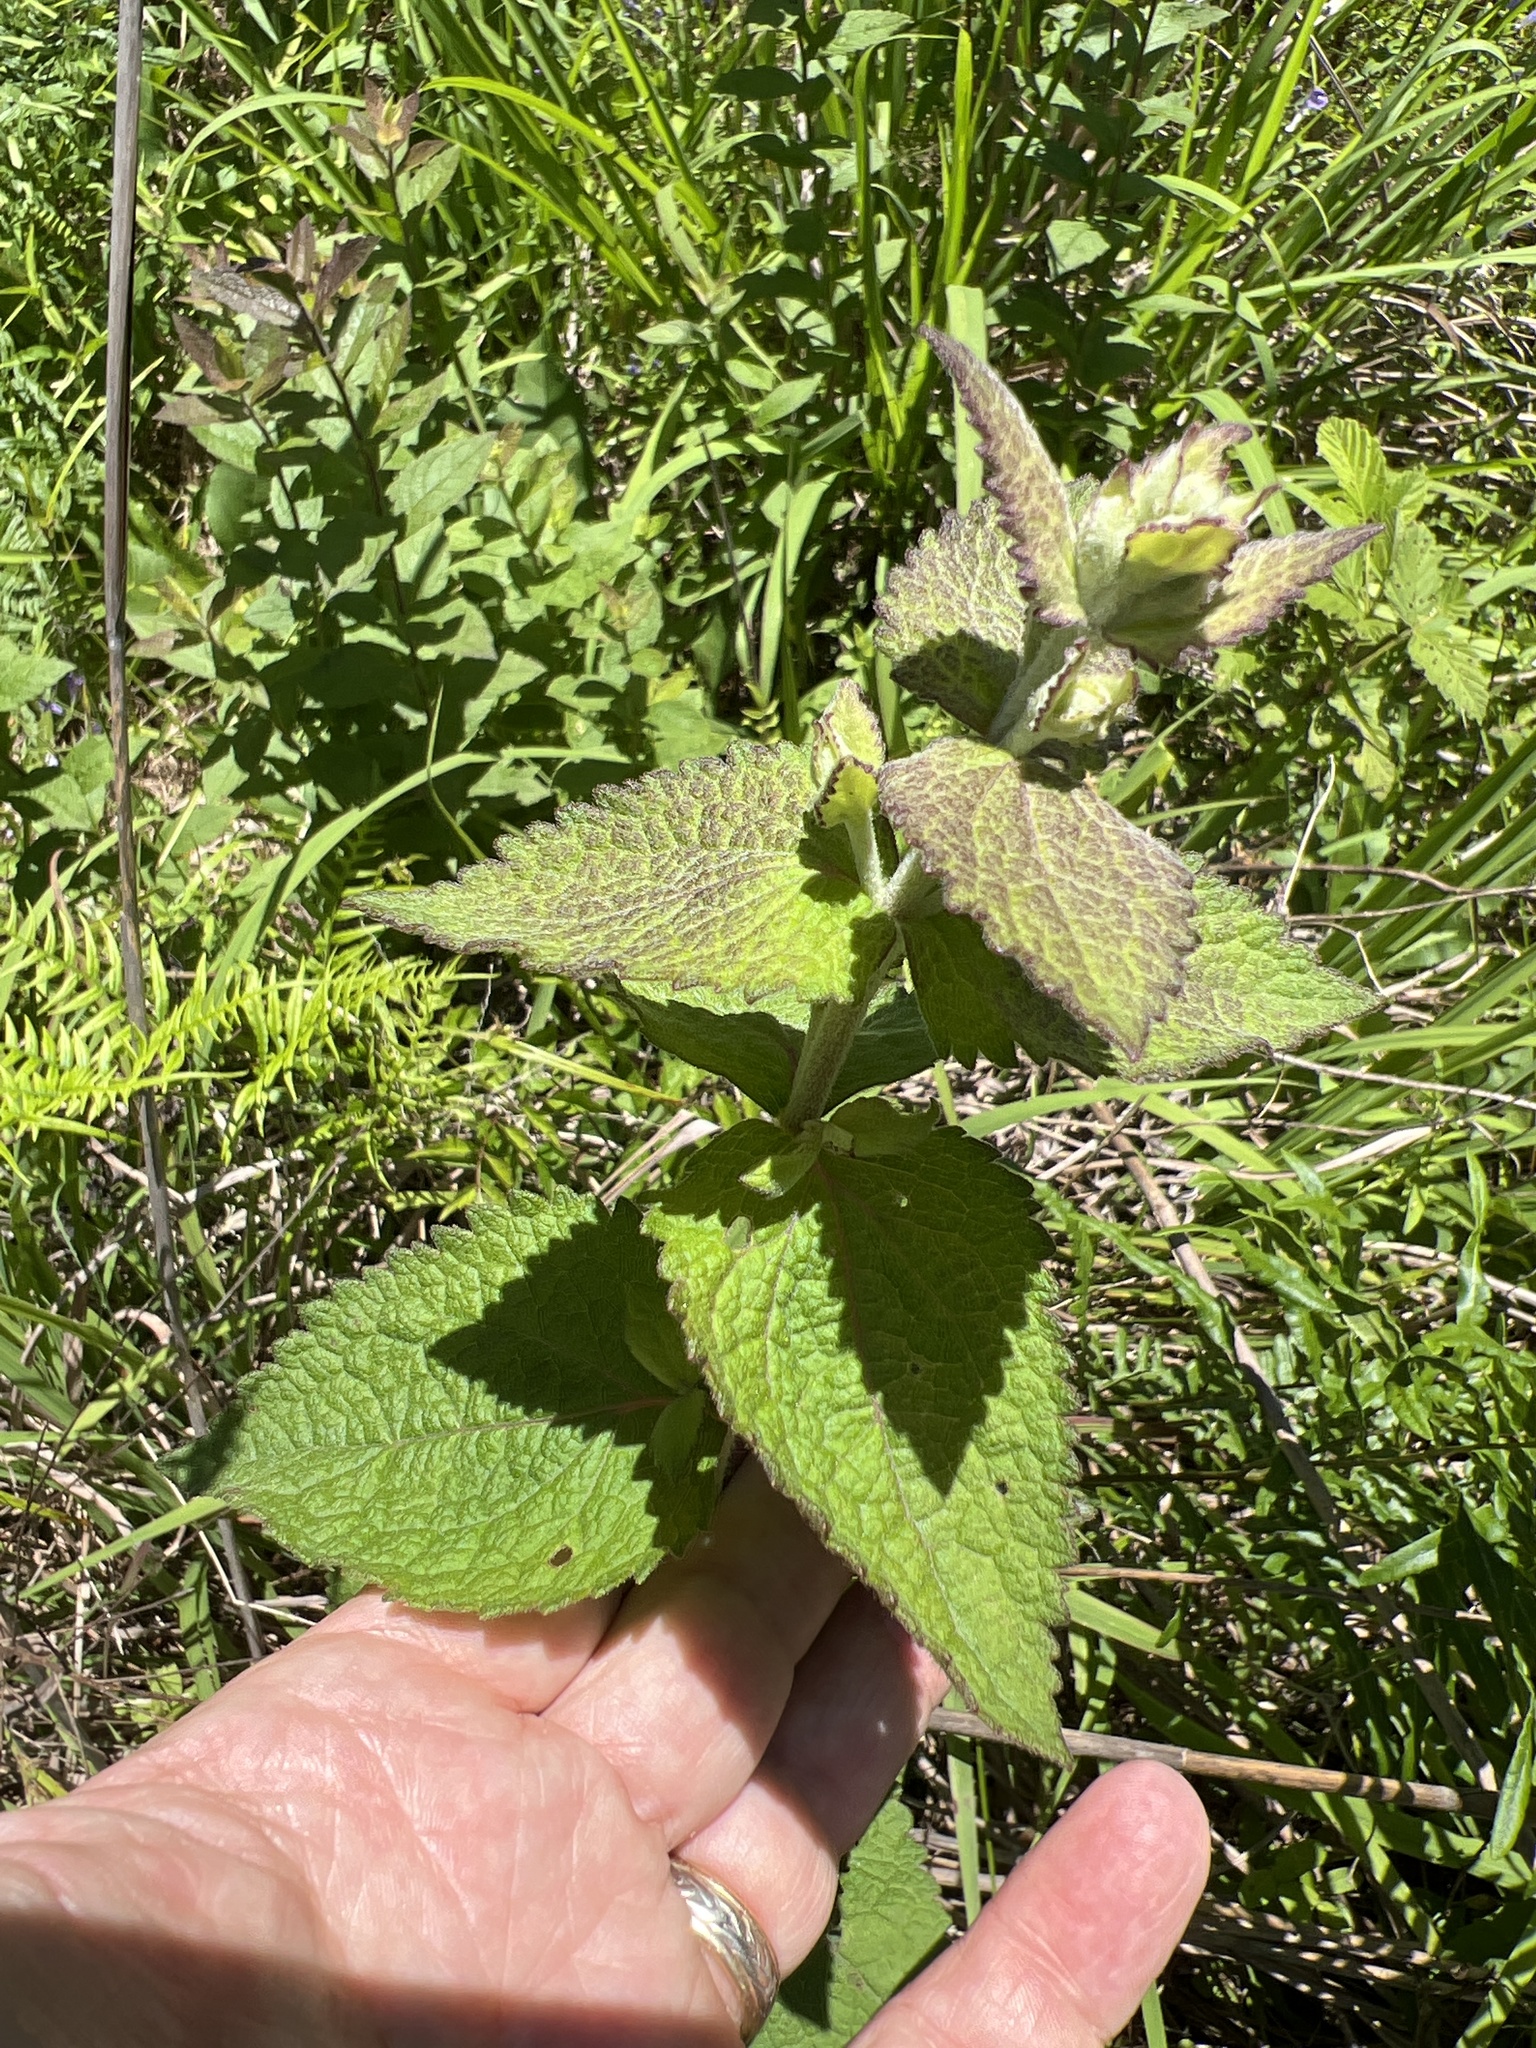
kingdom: Plantae
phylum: Tracheophyta
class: Magnoliopsida
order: Asterales
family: Asteraceae
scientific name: Asteraceae
